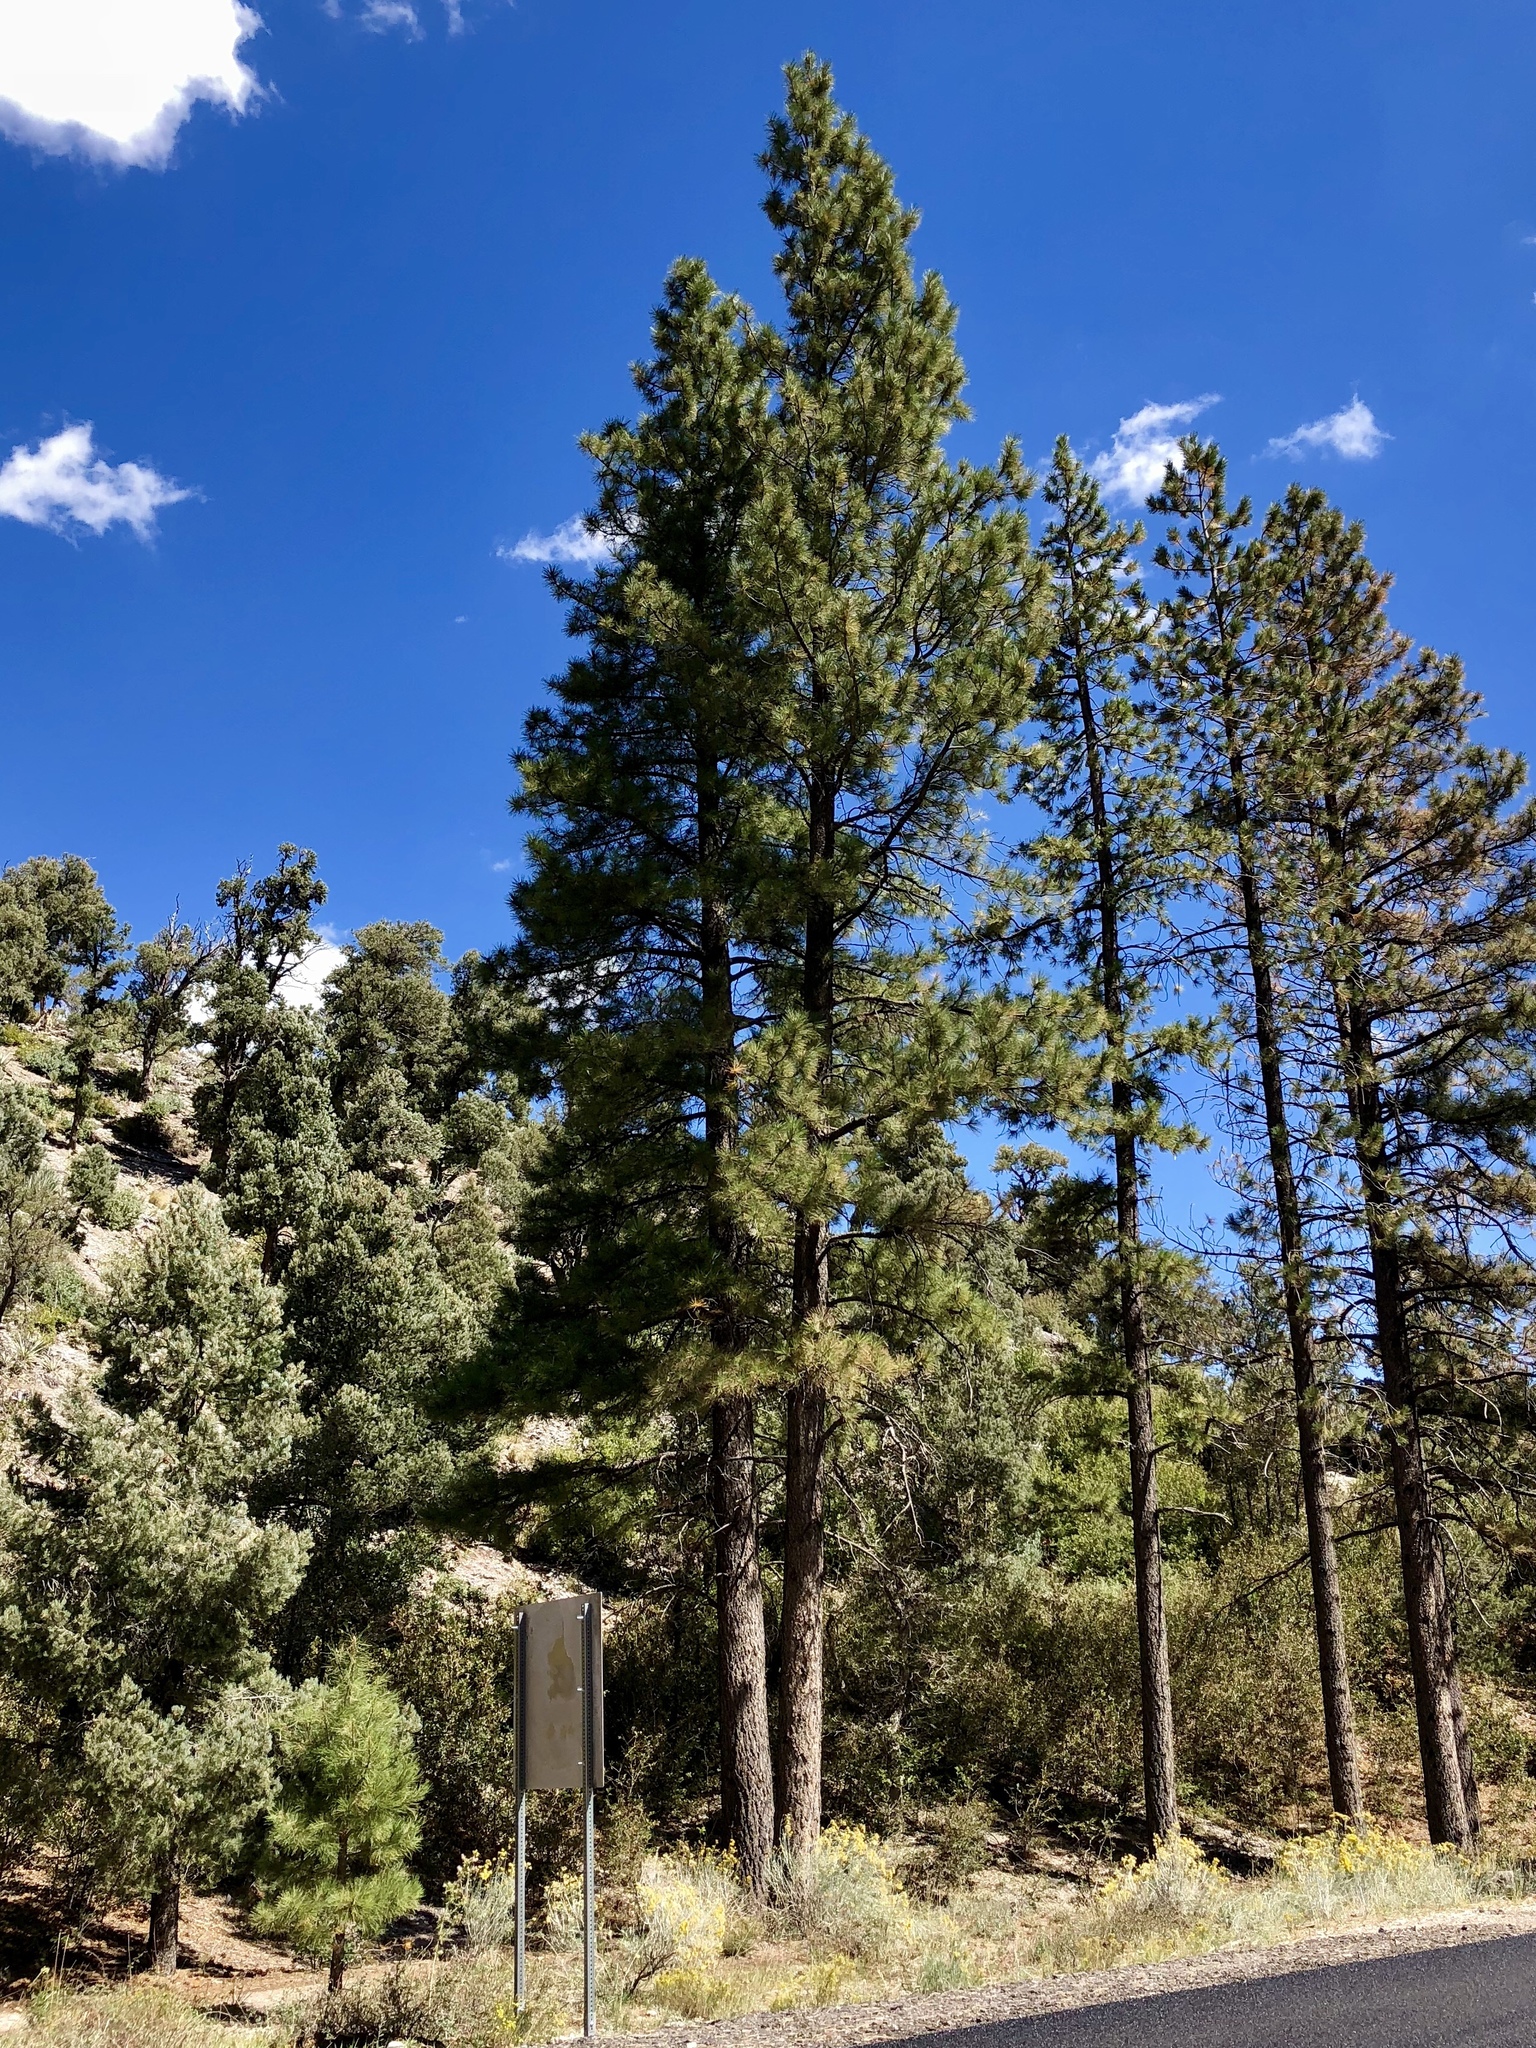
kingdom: Plantae
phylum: Tracheophyta
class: Pinopsida
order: Pinales
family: Pinaceae
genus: Pinus
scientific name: Pinus ponderosa
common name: Western yellow-pine
